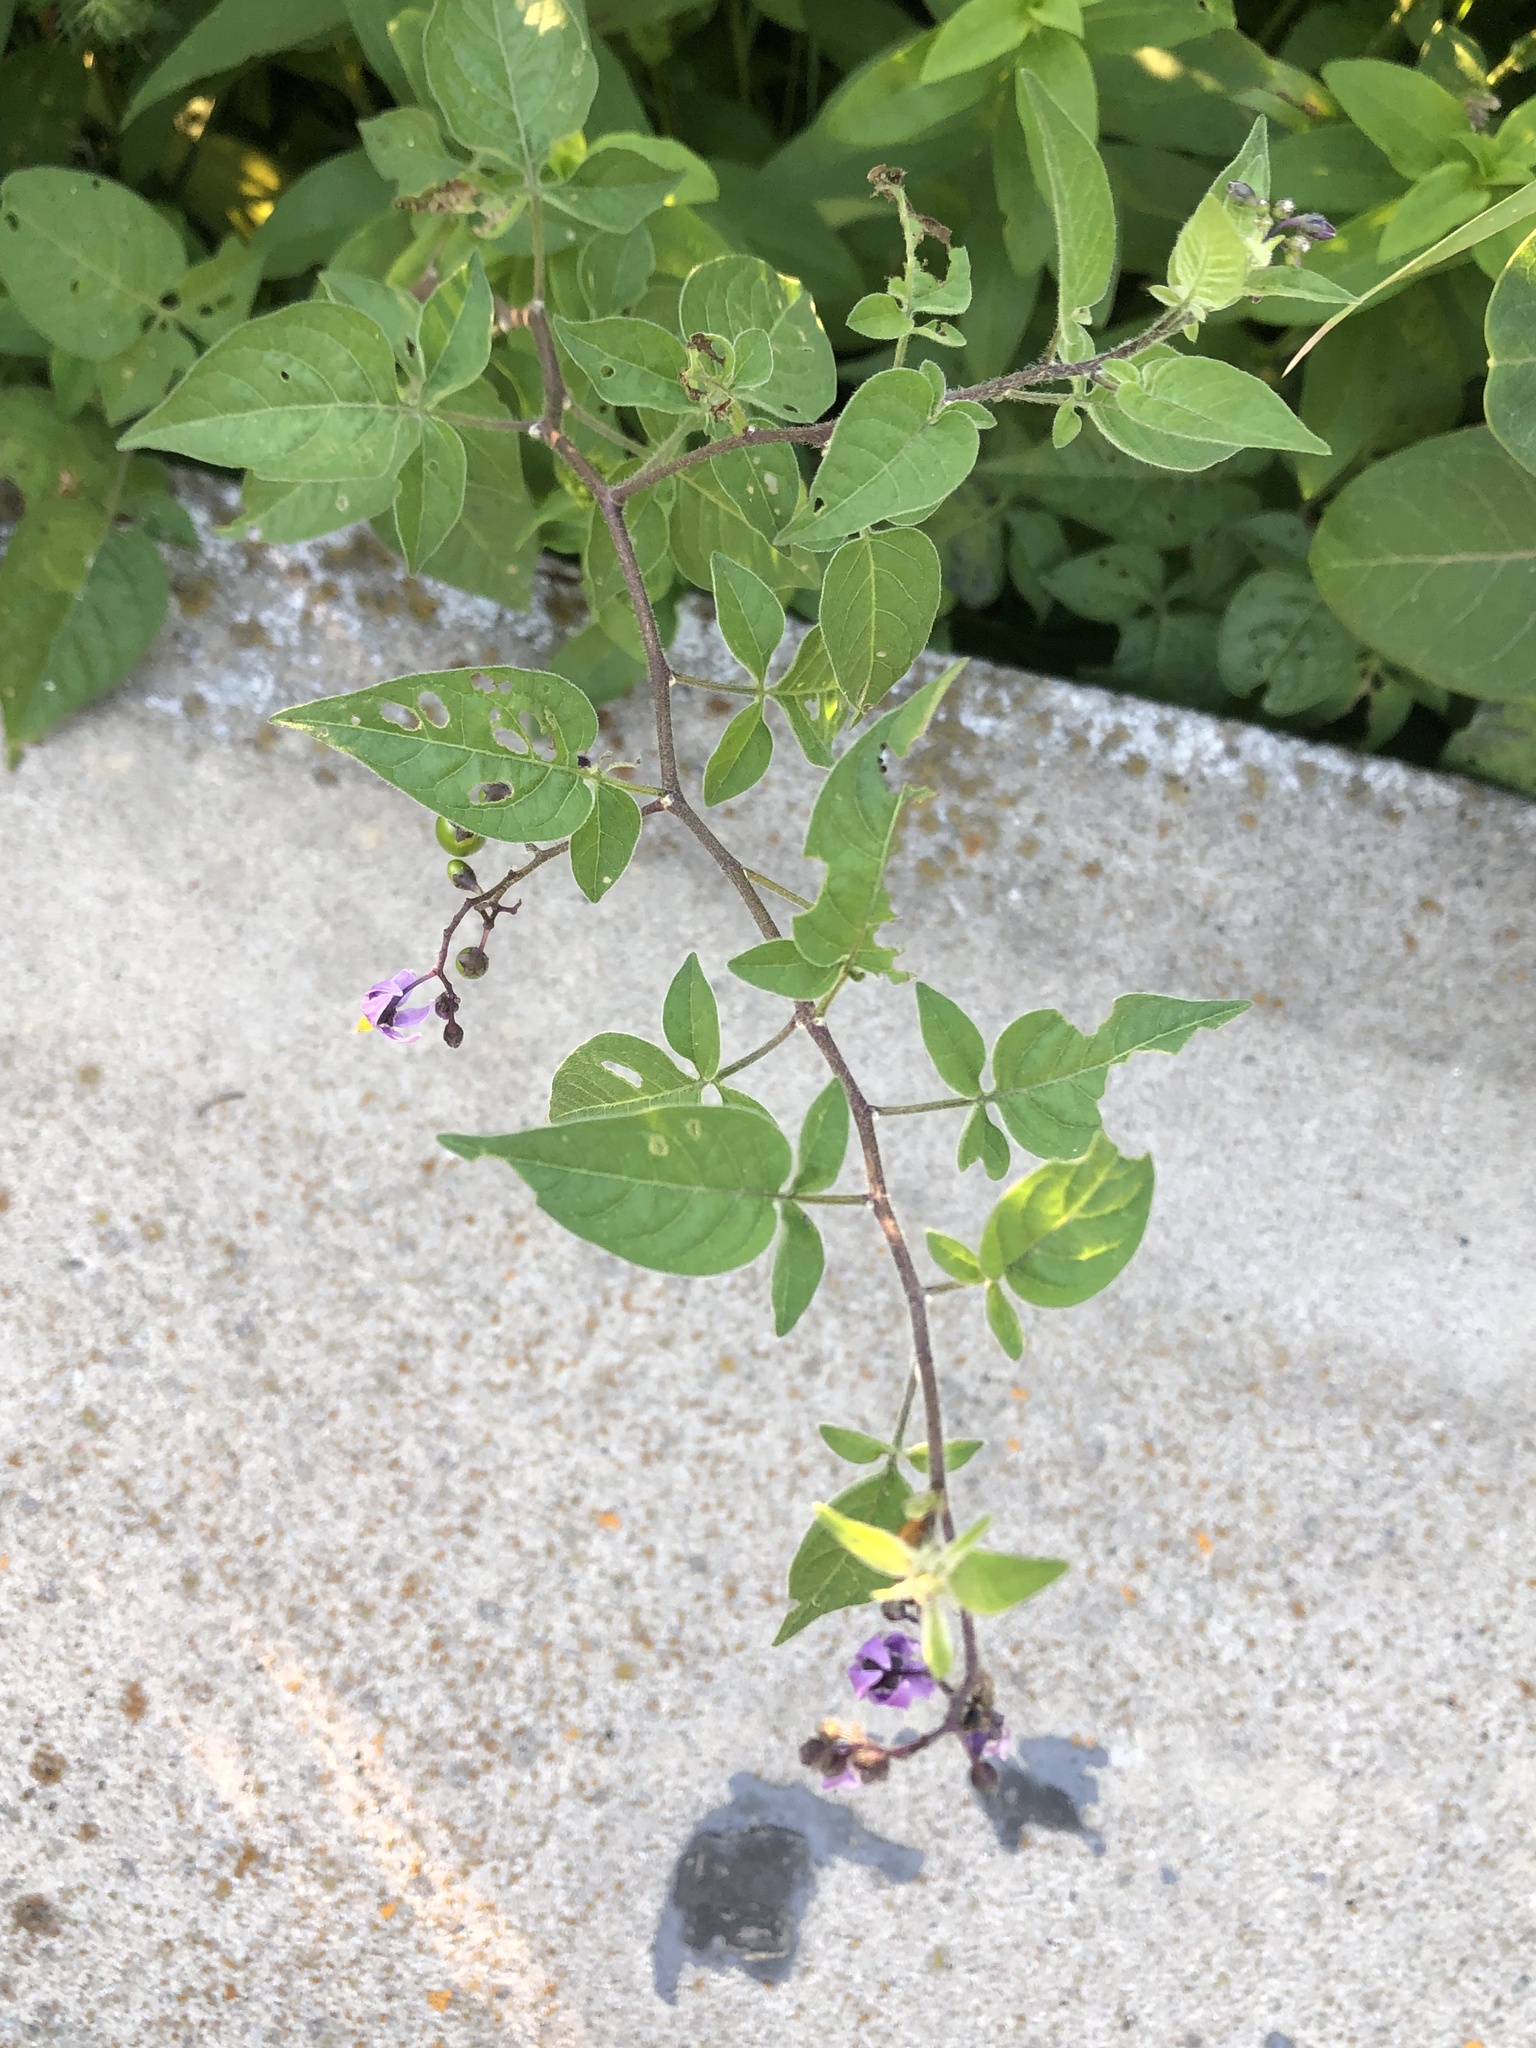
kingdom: Plantae
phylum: Tracheophyta
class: Magnoliopsida
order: Solanales
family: Solanaceae
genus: Solanum
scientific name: Solanum dulcamara
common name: Climbing nightshade
